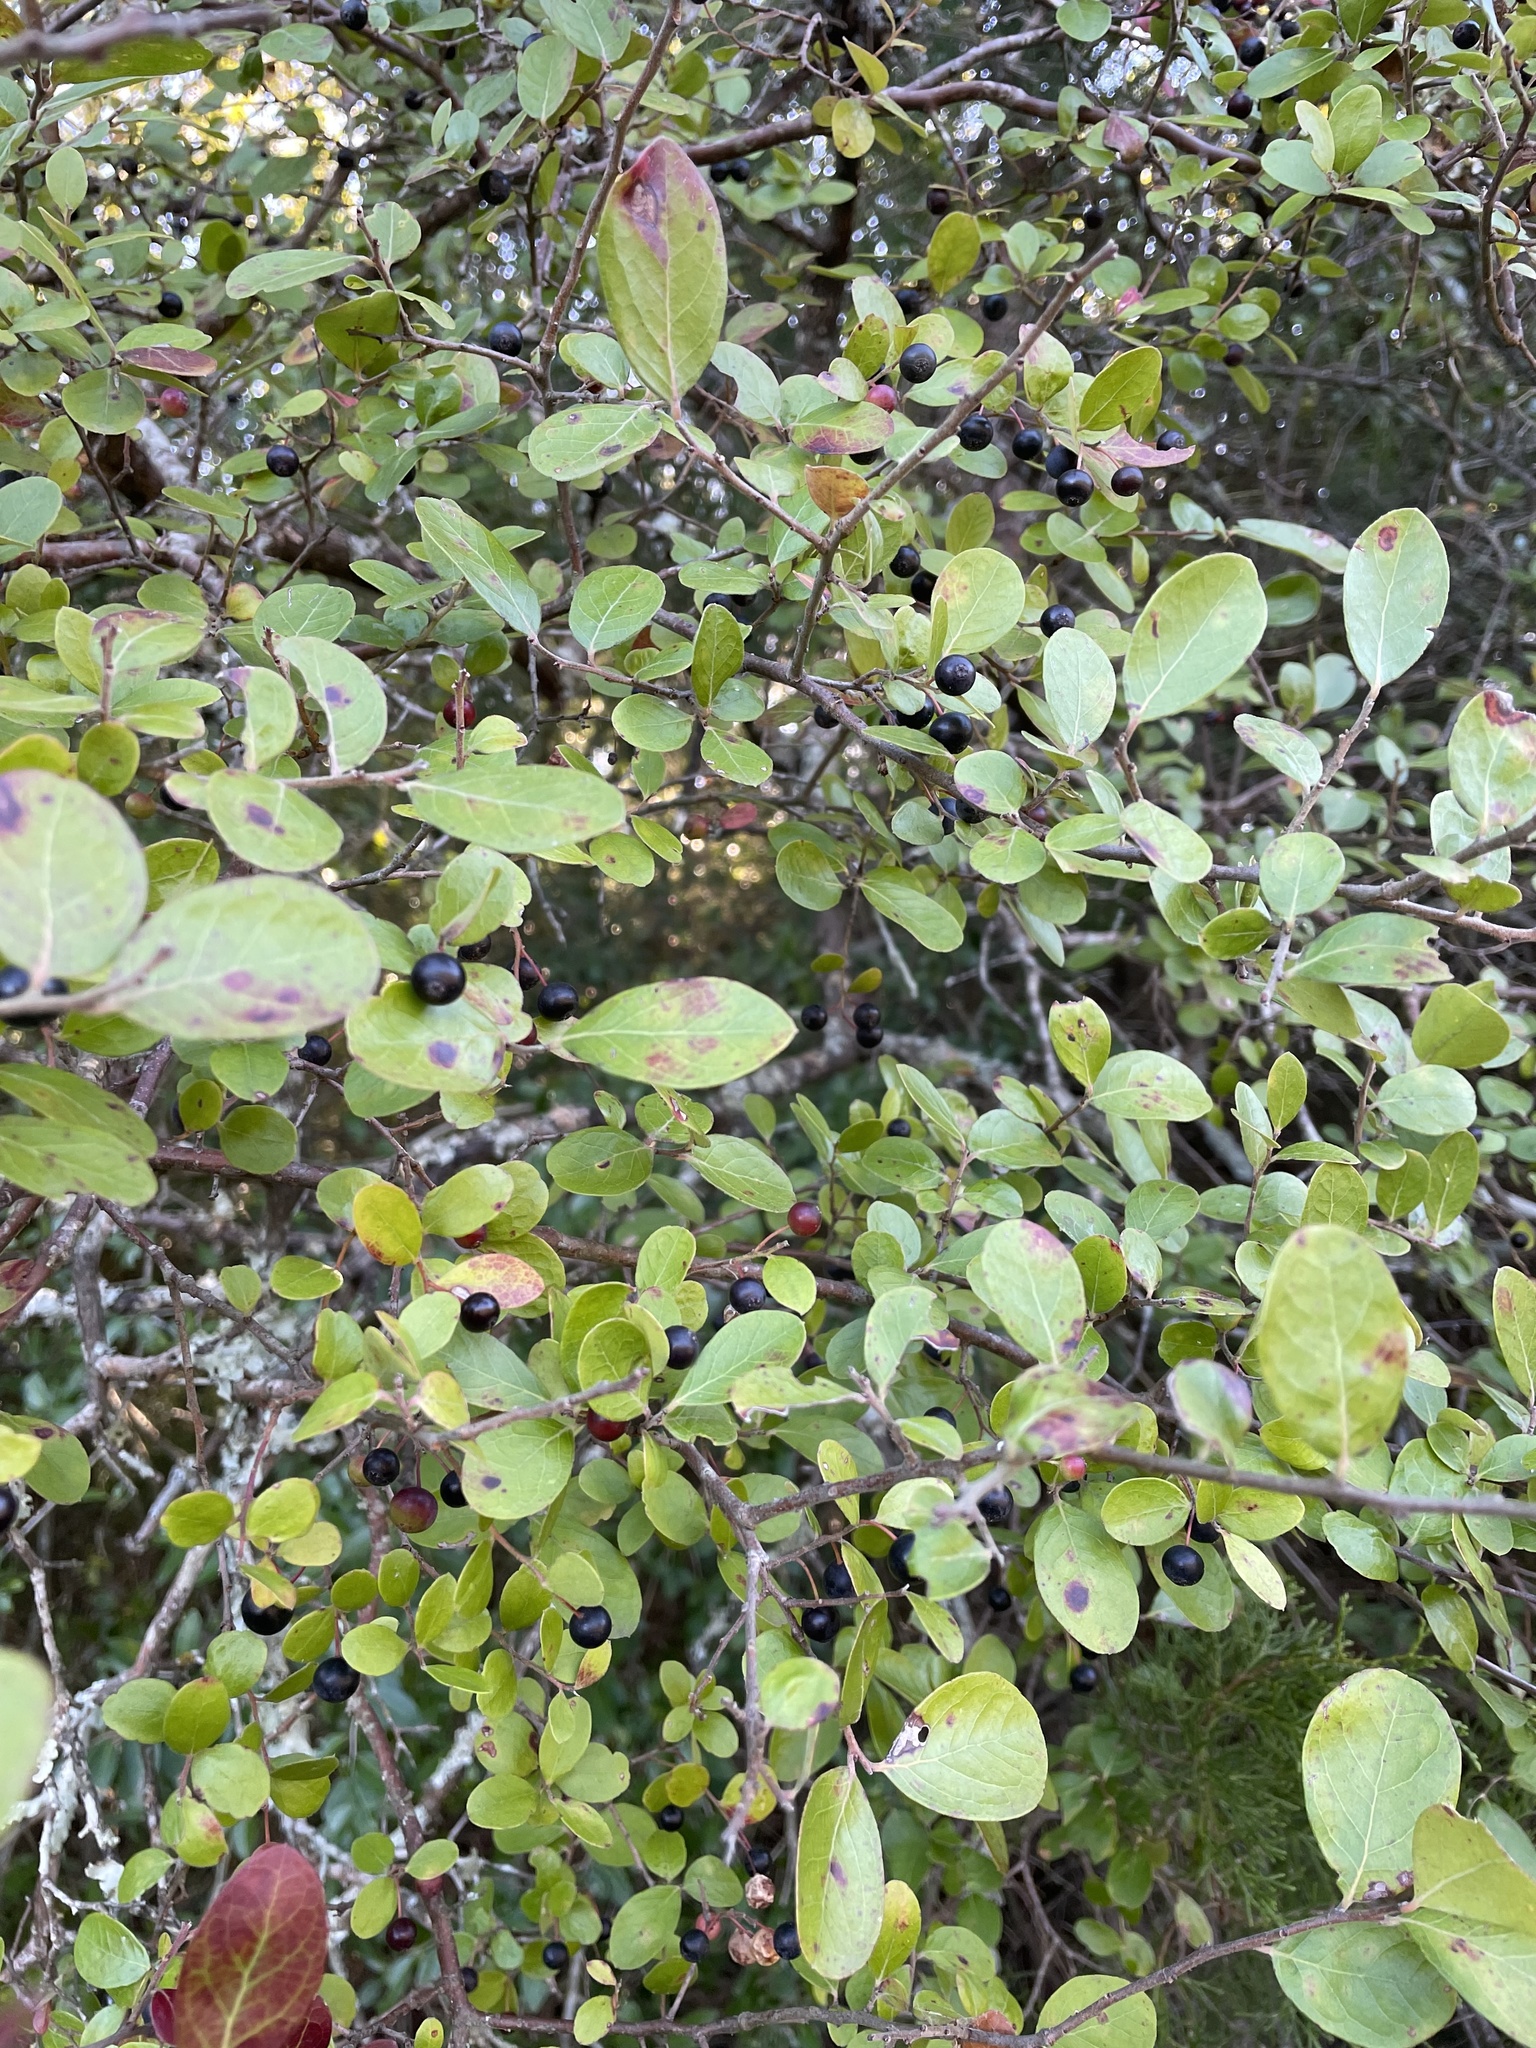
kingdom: Plantae
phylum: Tracheophyta
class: Magnoliopsida
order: Ericales
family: Ericaceae
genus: Vaccinium
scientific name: Vaccinium arboreum
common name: Farkleberry
